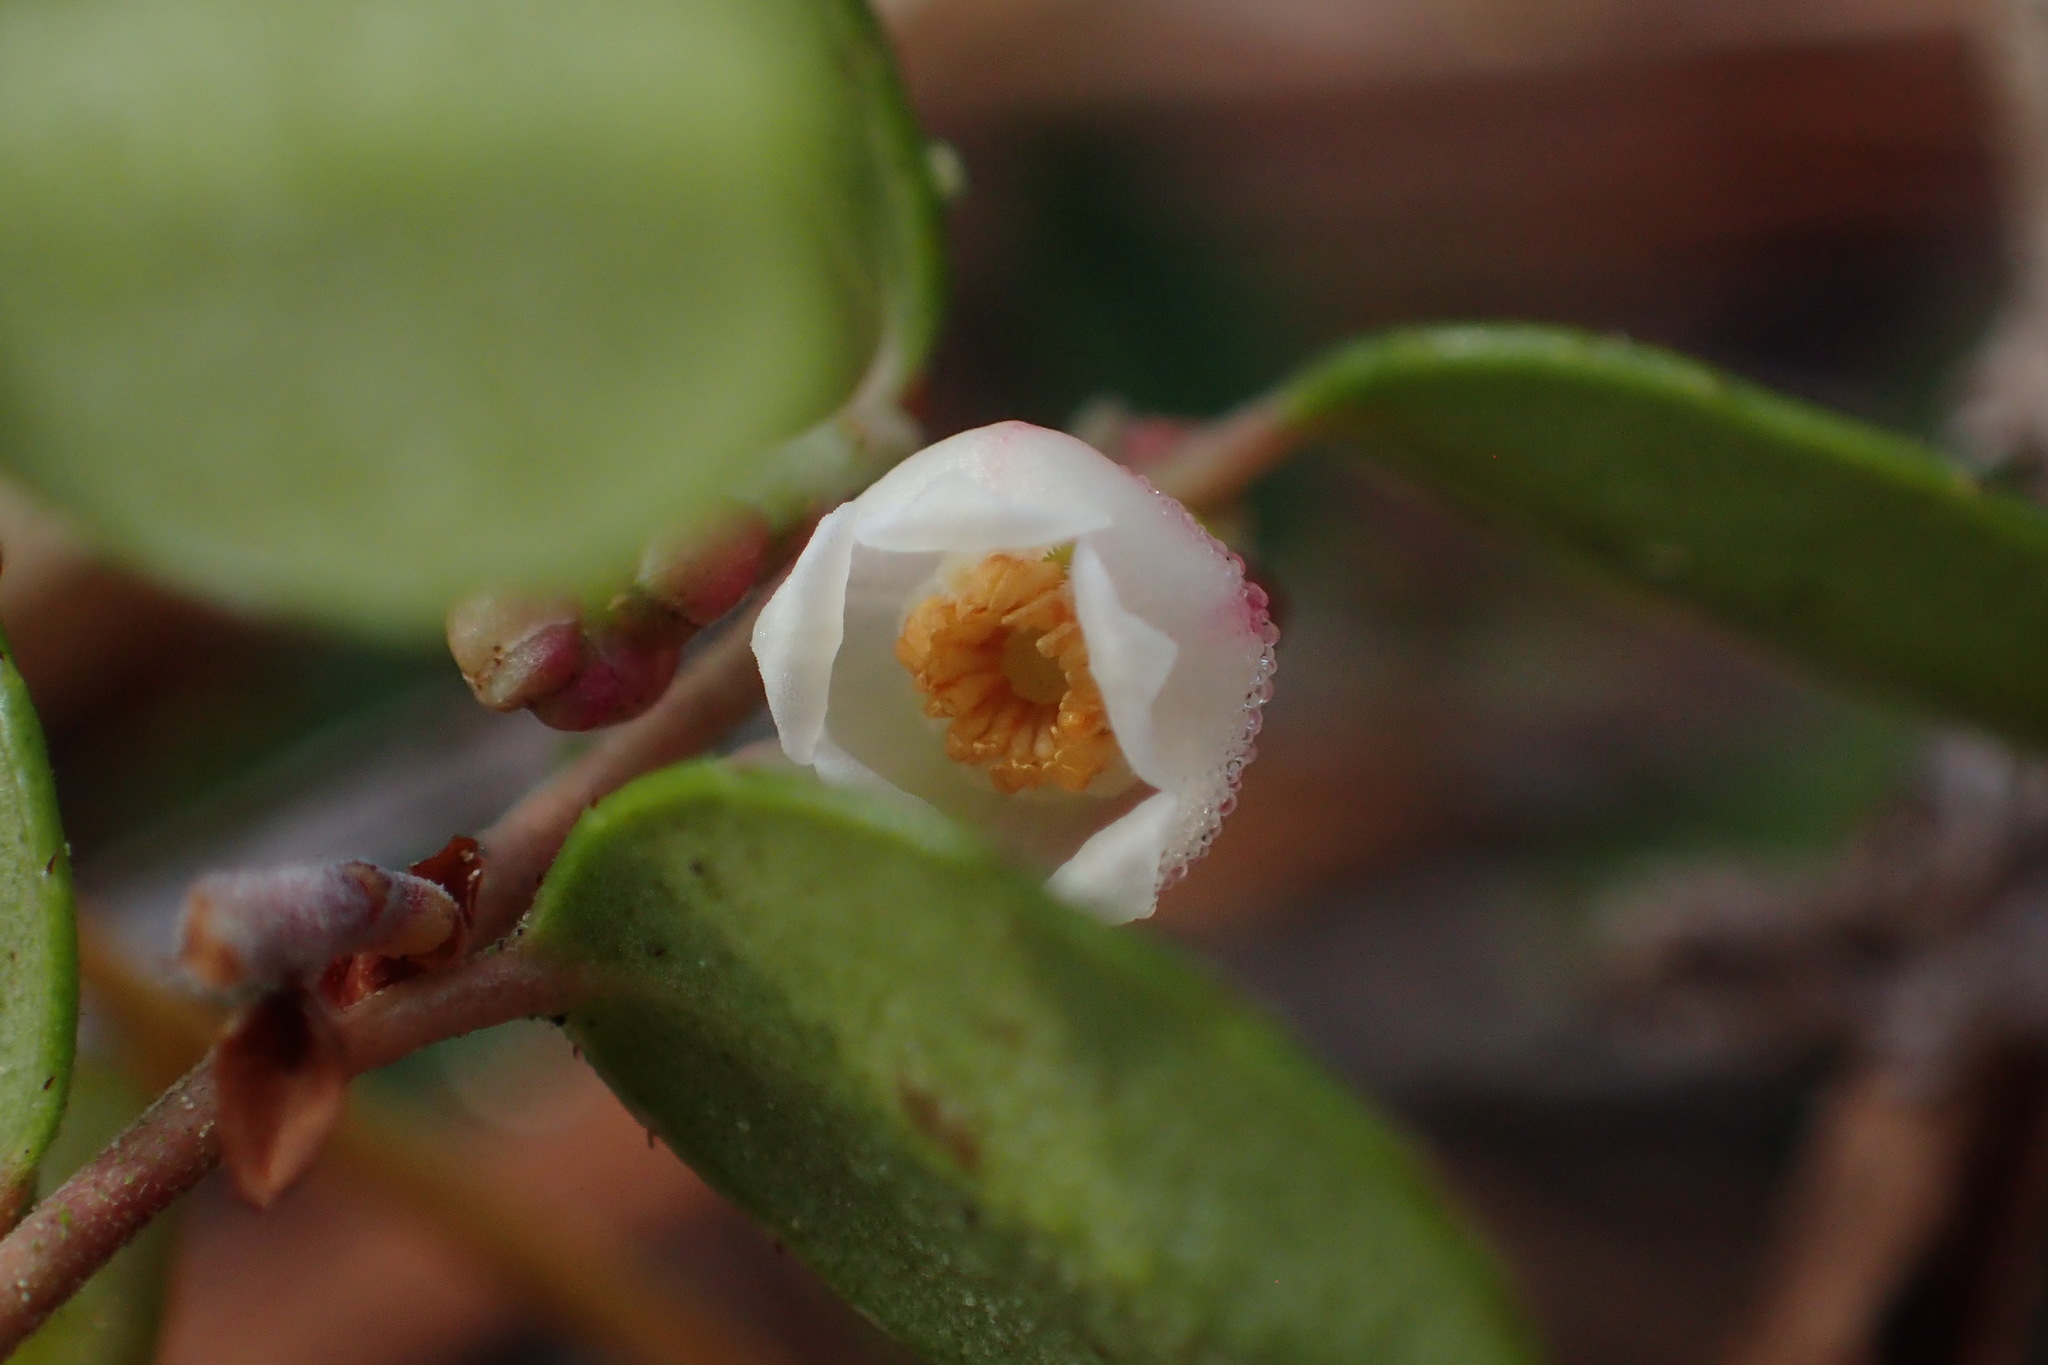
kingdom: Plantae
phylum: Tracheophyta
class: Magnoliopsida
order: Ericales
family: Ericaceae
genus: Vaccinium
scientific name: Vaccinium crassifolium
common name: Creeping blueberry
